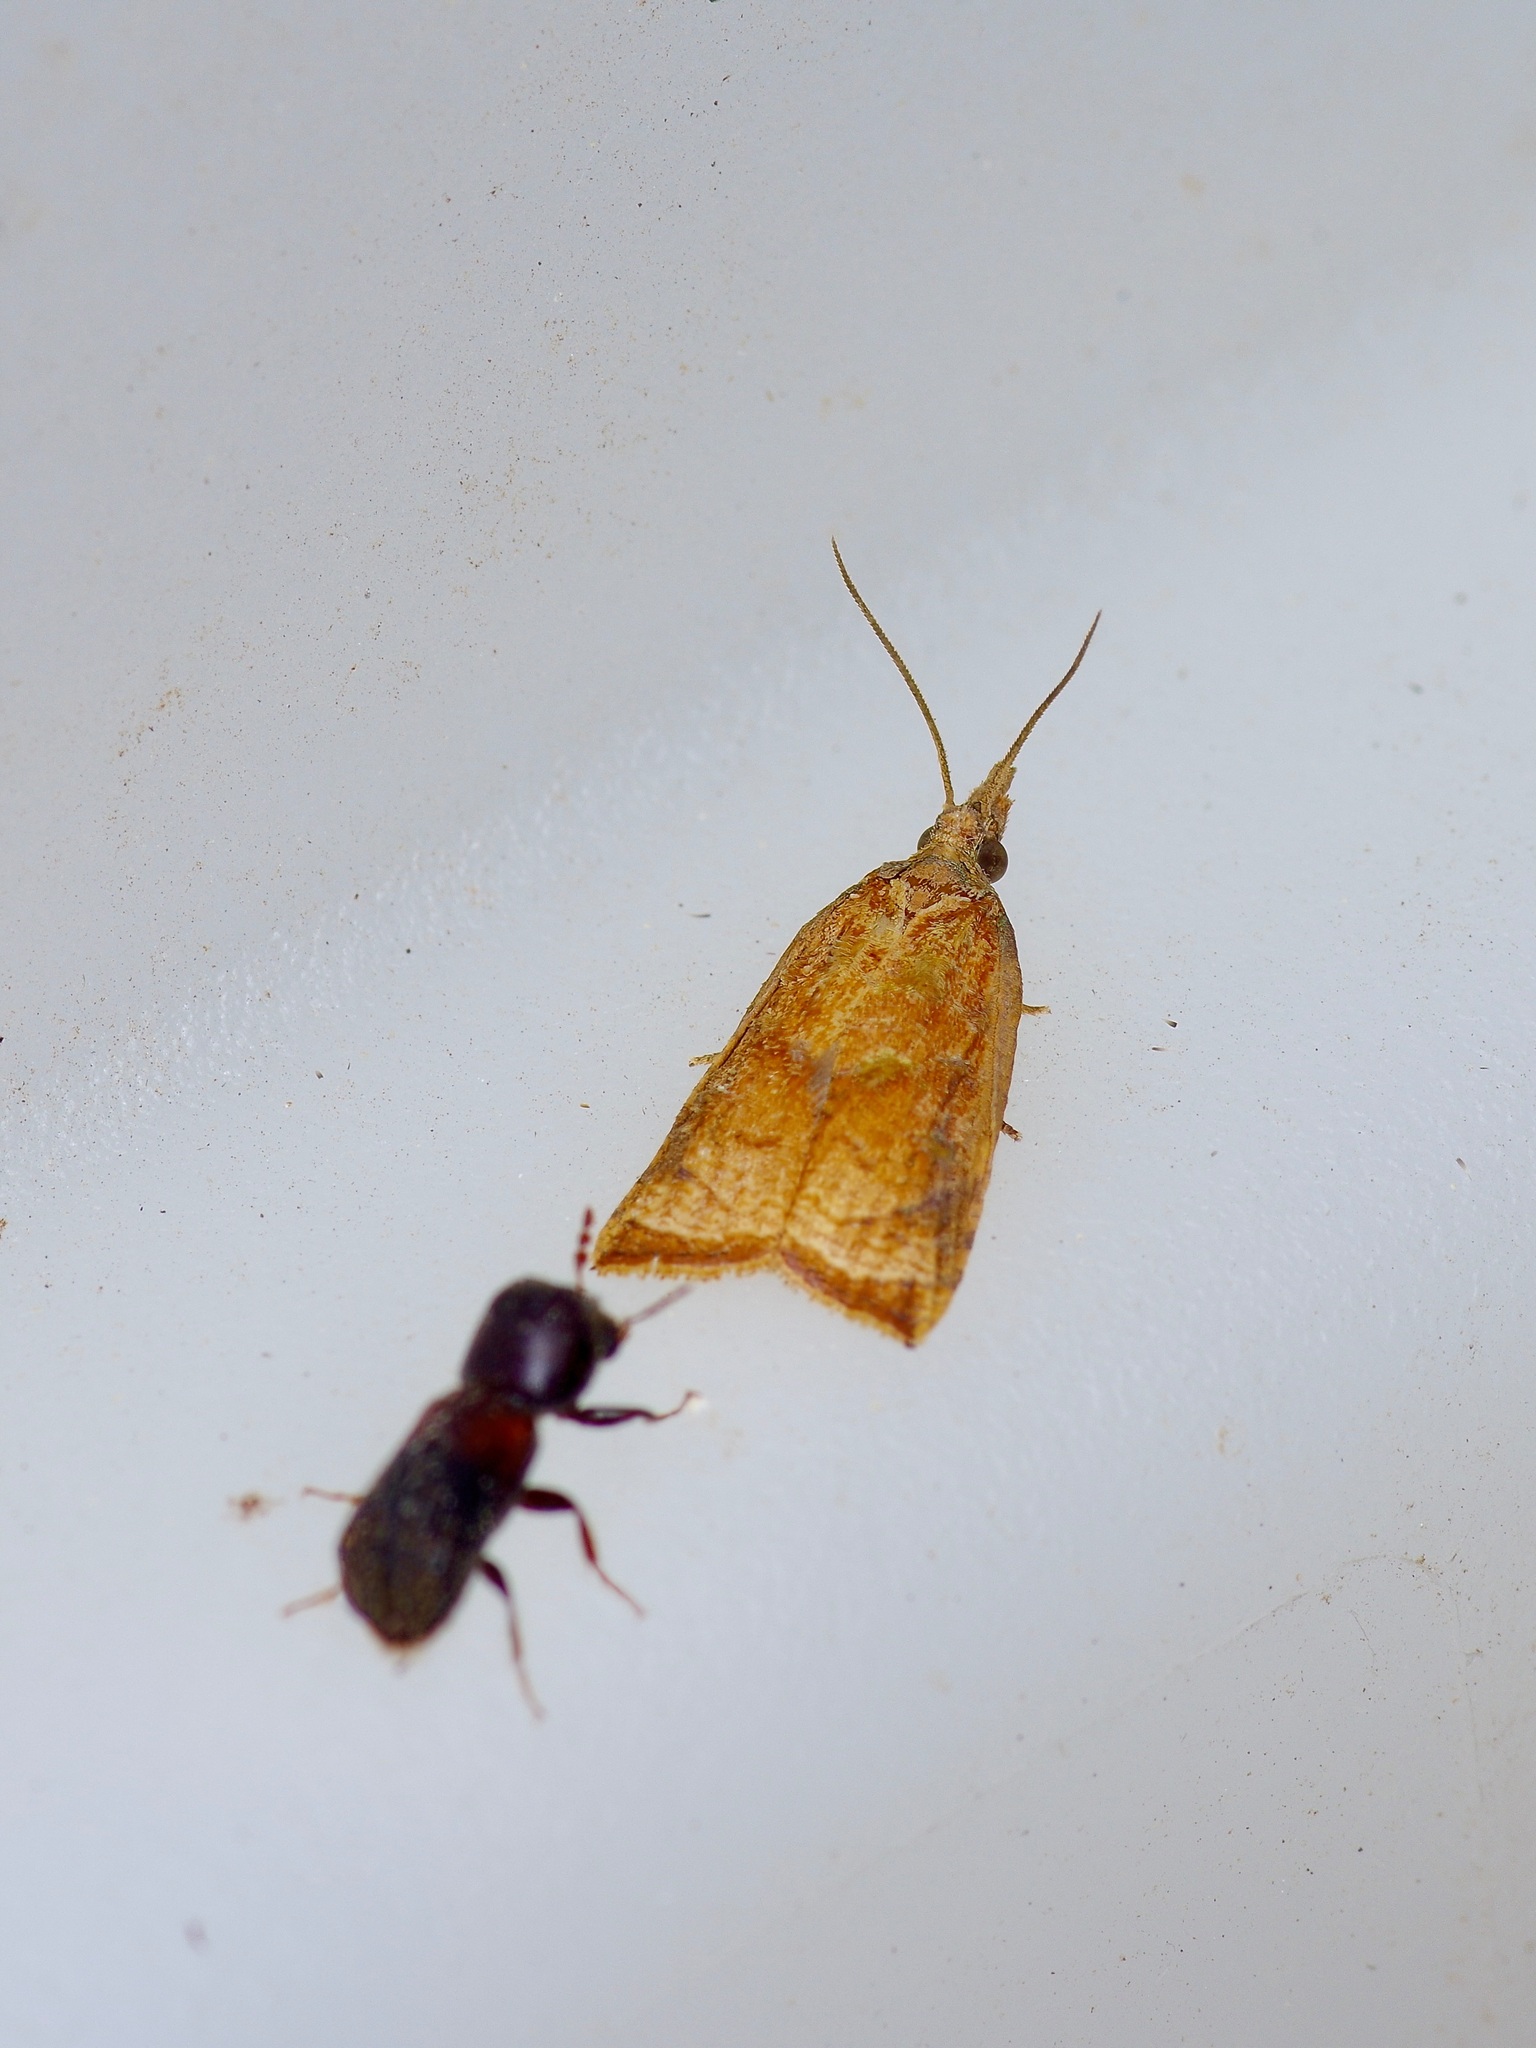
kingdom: Animalia
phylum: Arthropoda
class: Insecta
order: Lepidoptera
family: Tortricidae
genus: Platynota
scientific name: Platynota rostrana
